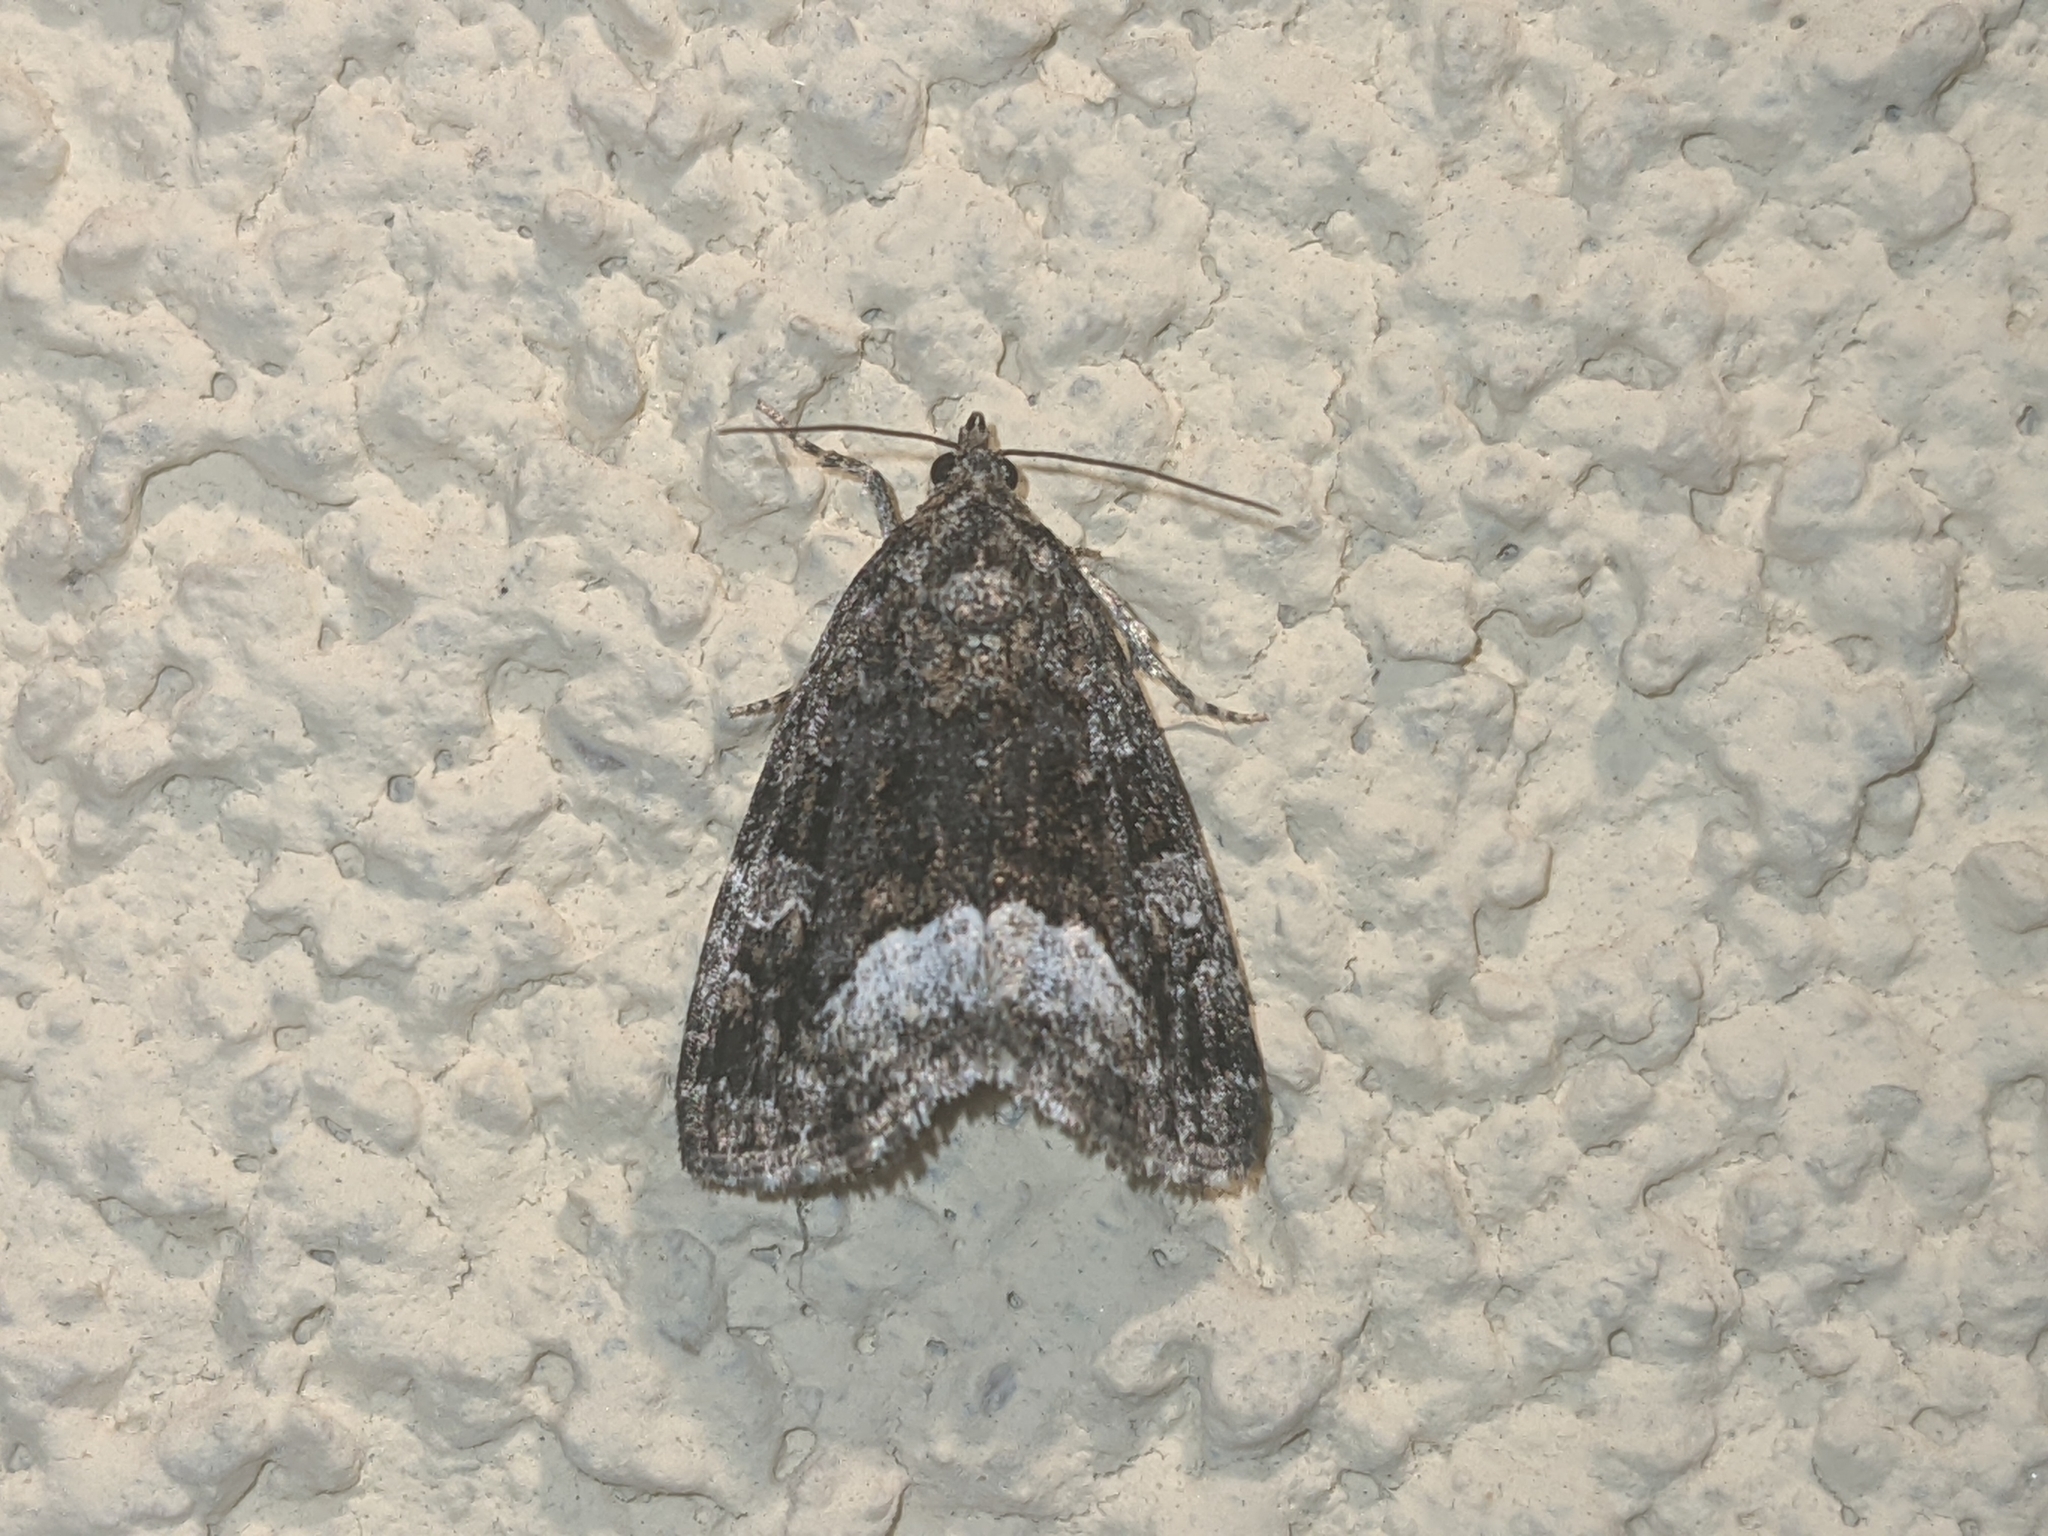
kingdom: Animalia
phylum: Arthropoda
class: Insecta
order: Lepidoptera
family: Noctuidae
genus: Deltote
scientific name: Deltote pygarga
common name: Marbled white spot
